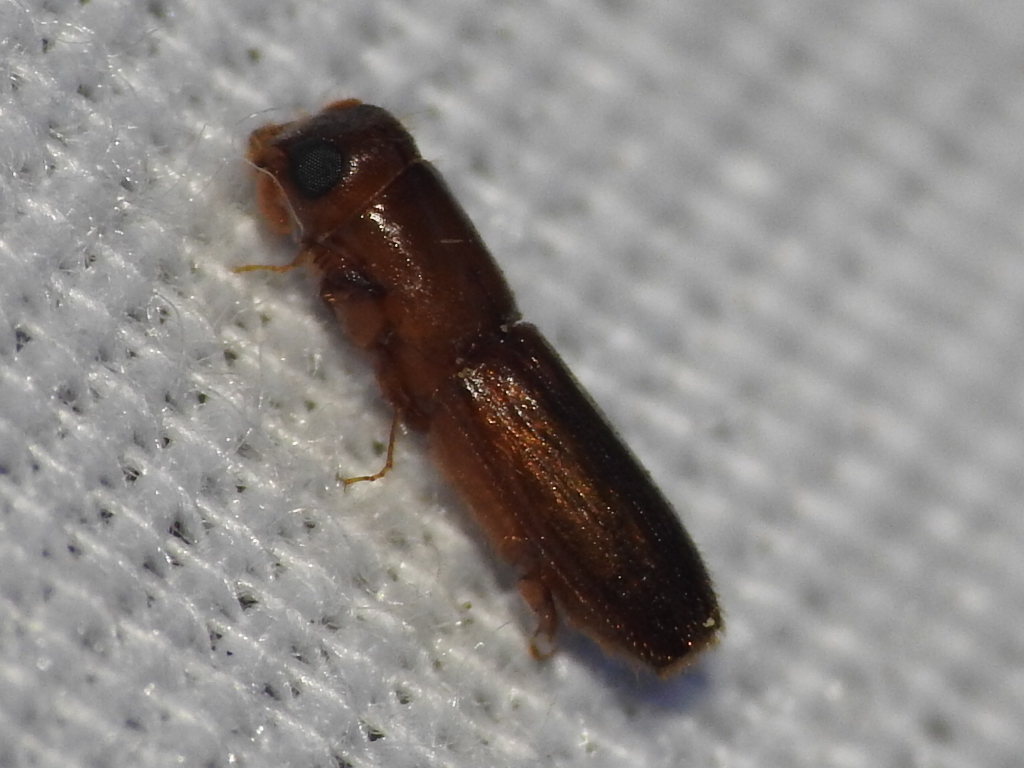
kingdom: Animalia
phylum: Arthropoda
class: Insecta
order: Coleoptera
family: Curculionidae
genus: Euplatypus
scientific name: Euplatypus compositus
